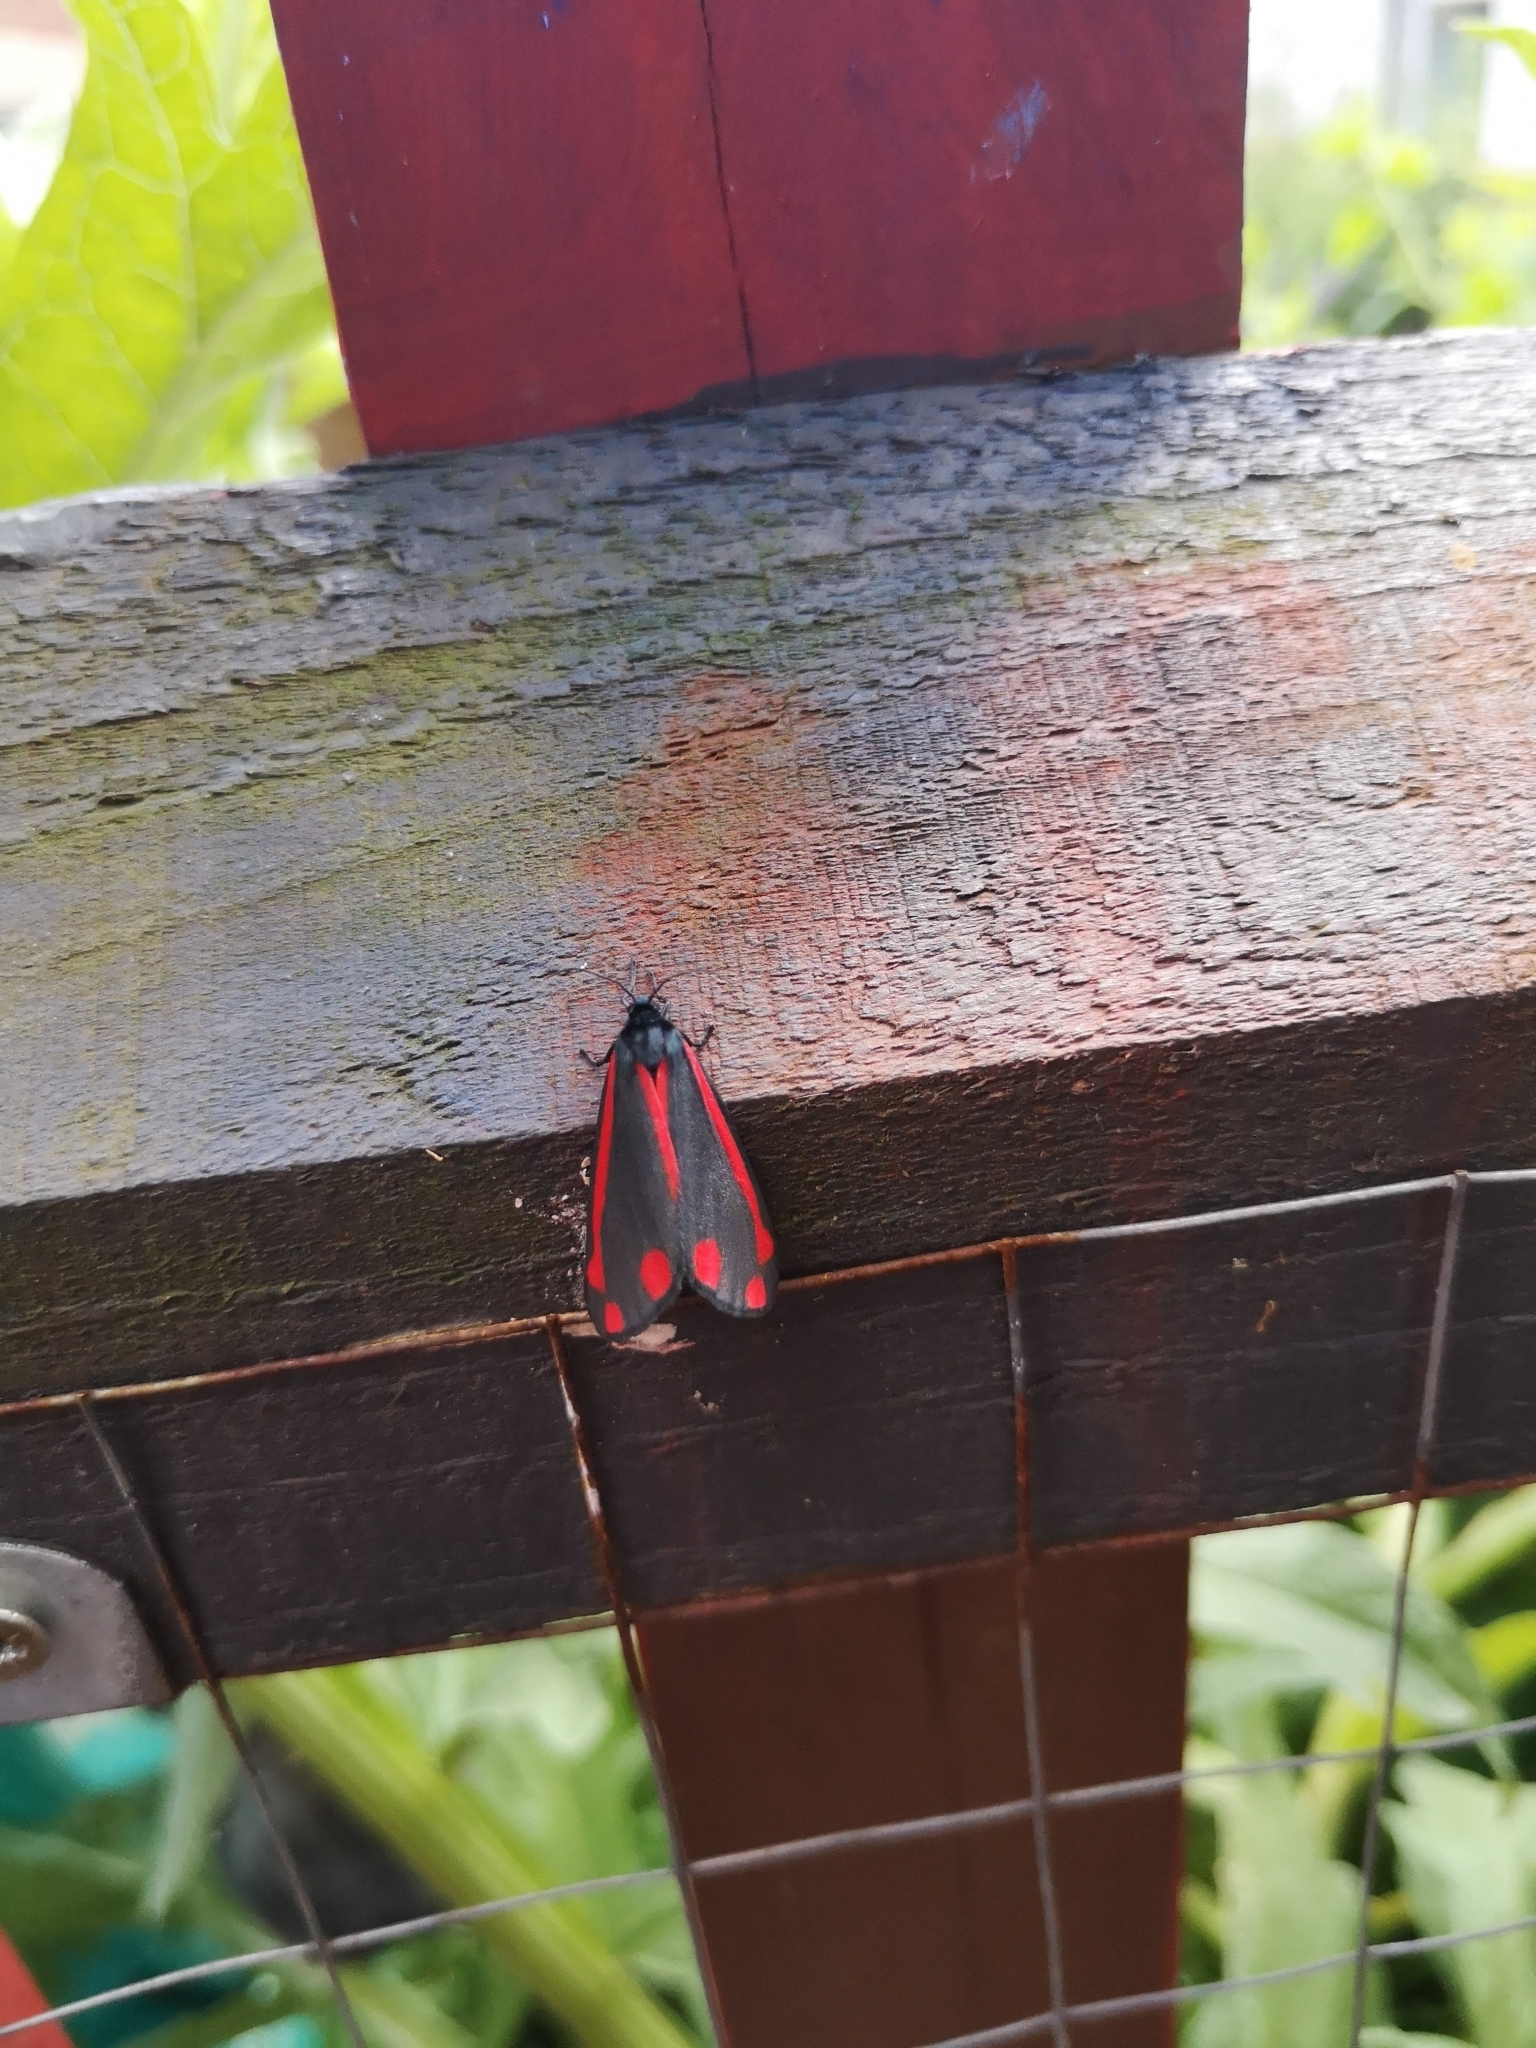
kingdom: Animalia
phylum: Arthropoda
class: Insecta
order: Lepidoptera
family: Erebidae
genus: Tyria
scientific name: Tyria jacobaeae
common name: Cinnabar
